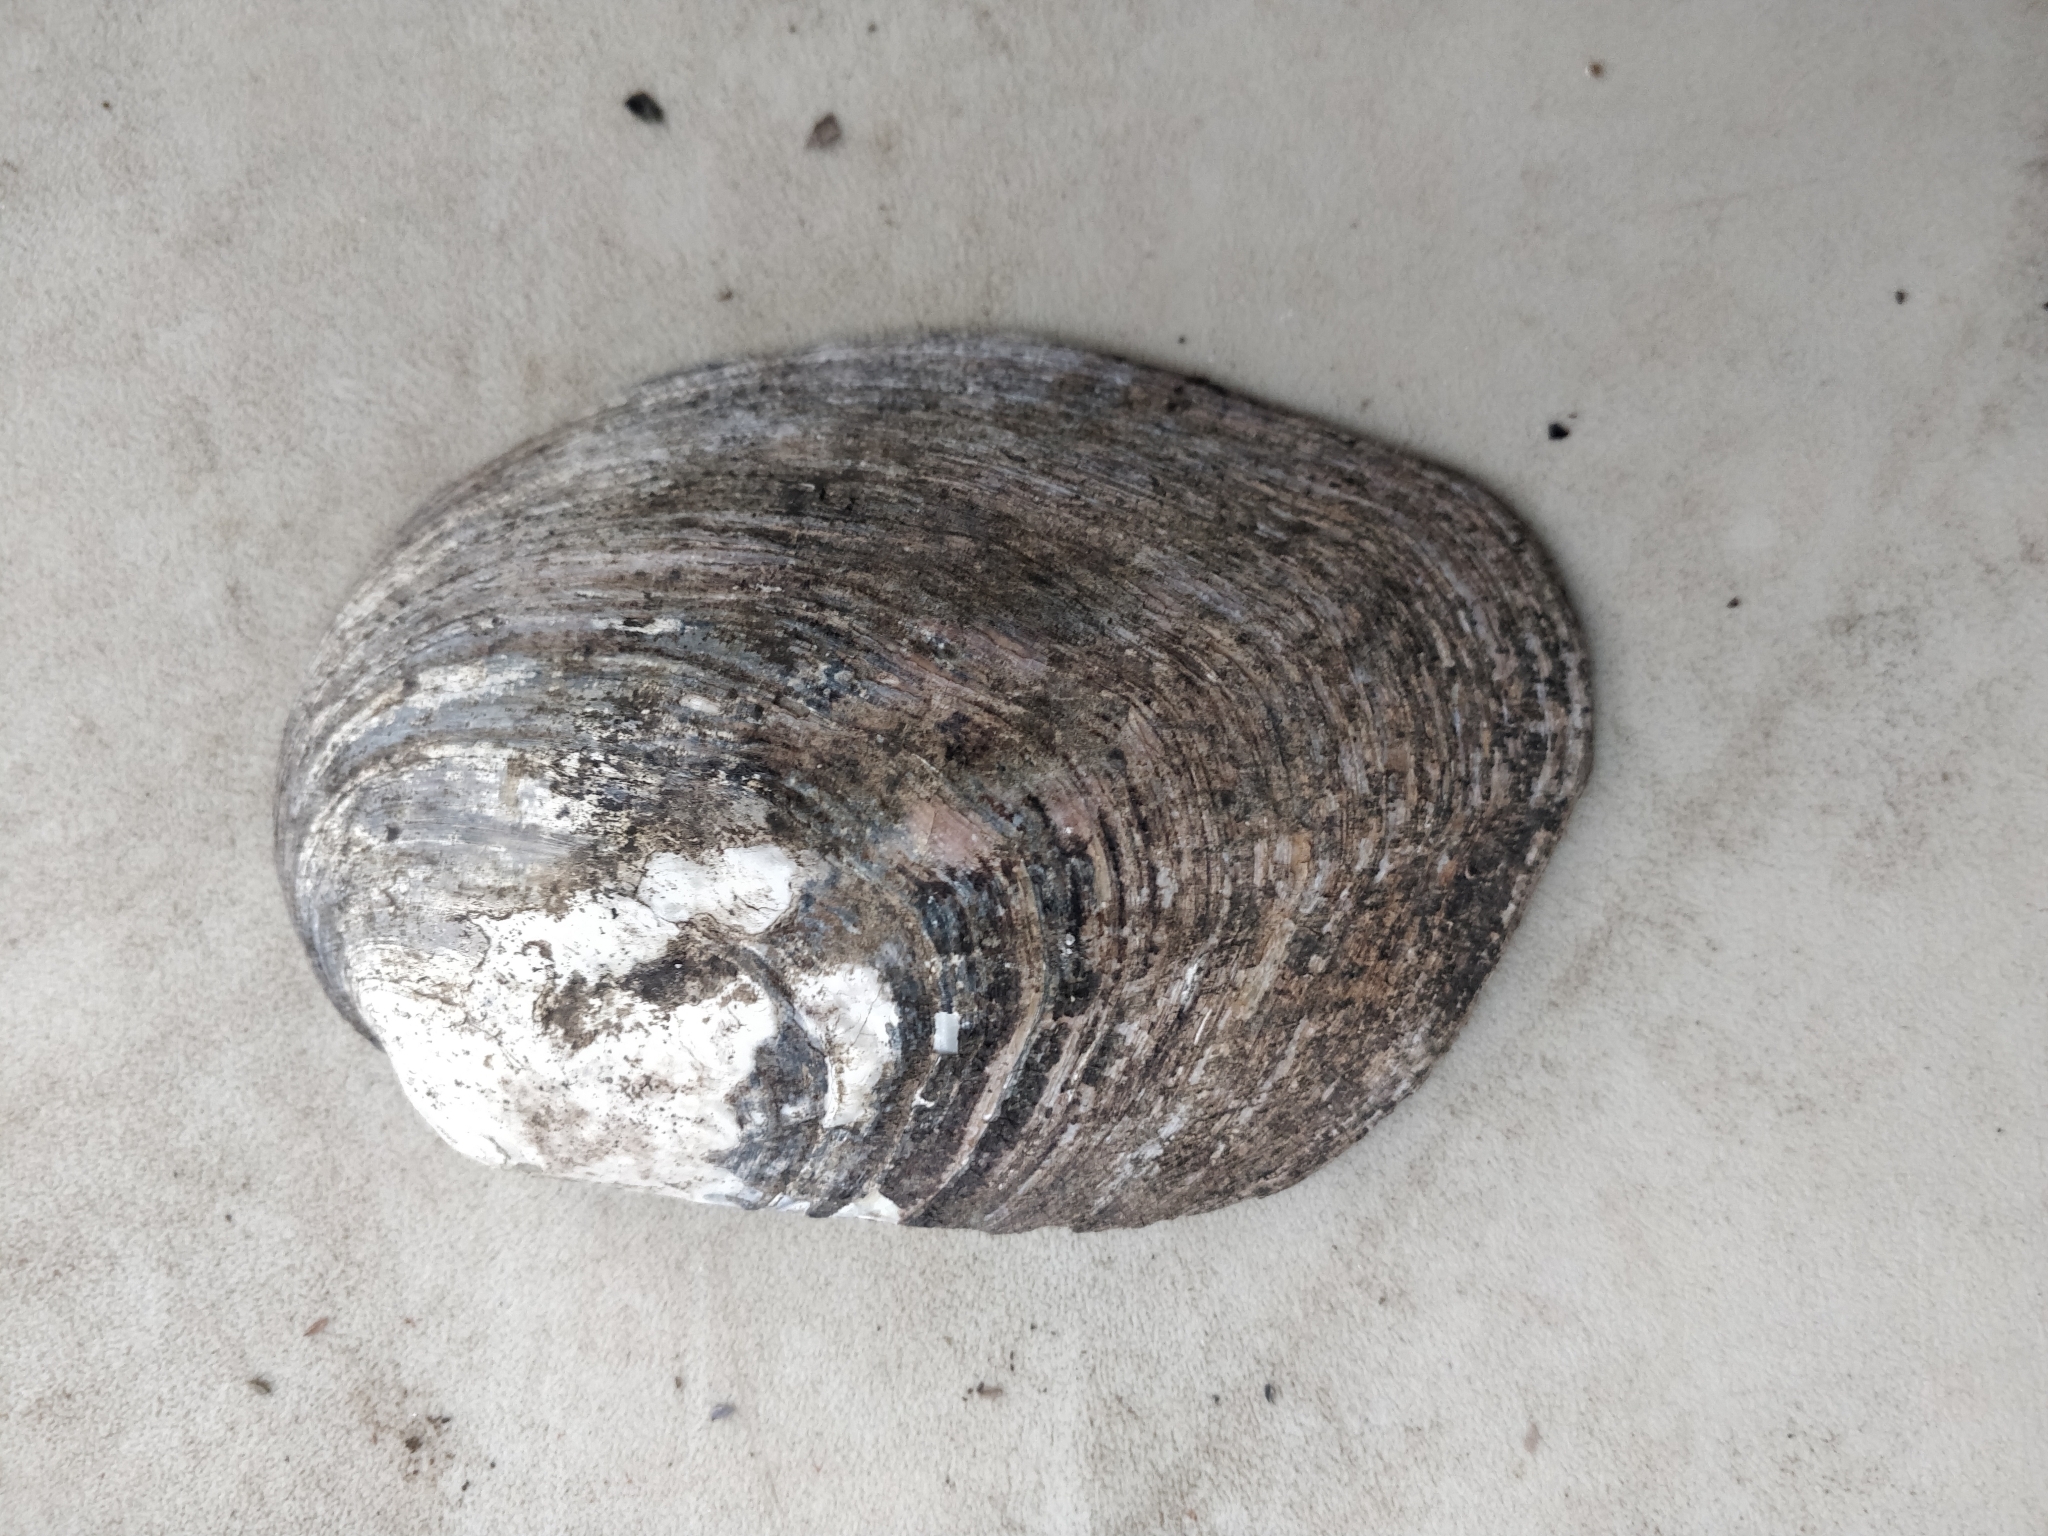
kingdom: Animalia
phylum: Mollusca
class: Bivalvia
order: Unionida
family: Unionidae
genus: Amblema
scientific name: Amblema plicata
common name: Threeridge
